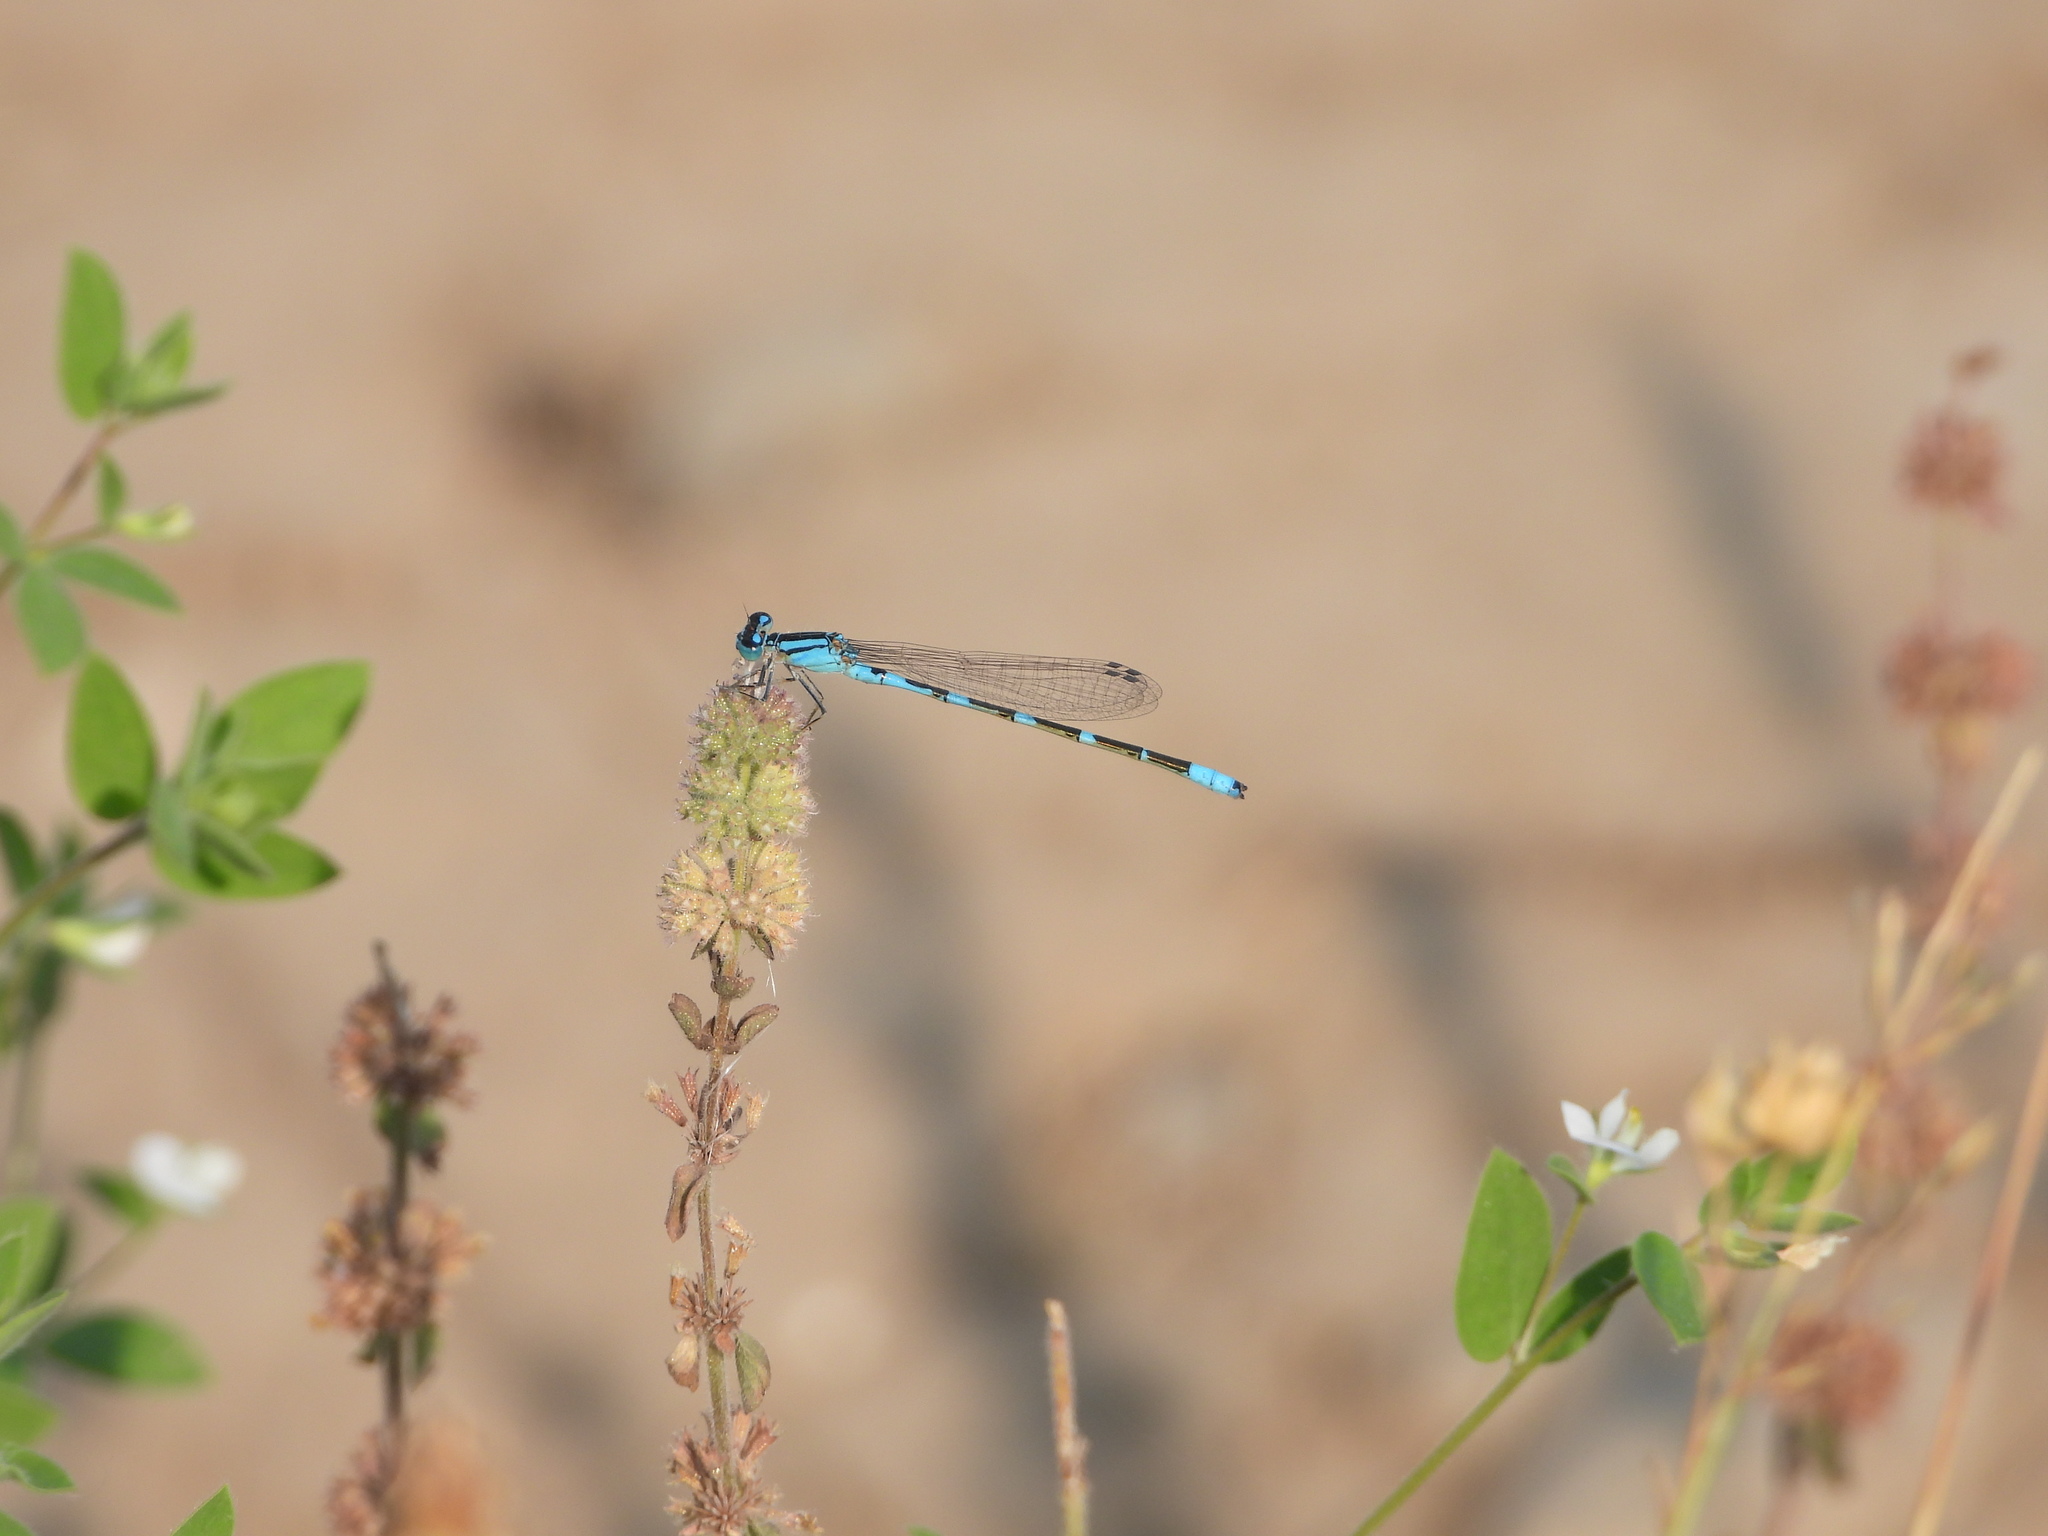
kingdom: Animalia
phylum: Arthropoda
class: Insecta
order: Odonata
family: Coenagrionidae
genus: Enallagma
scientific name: Enallagma carunculatum
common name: Tule bluet
